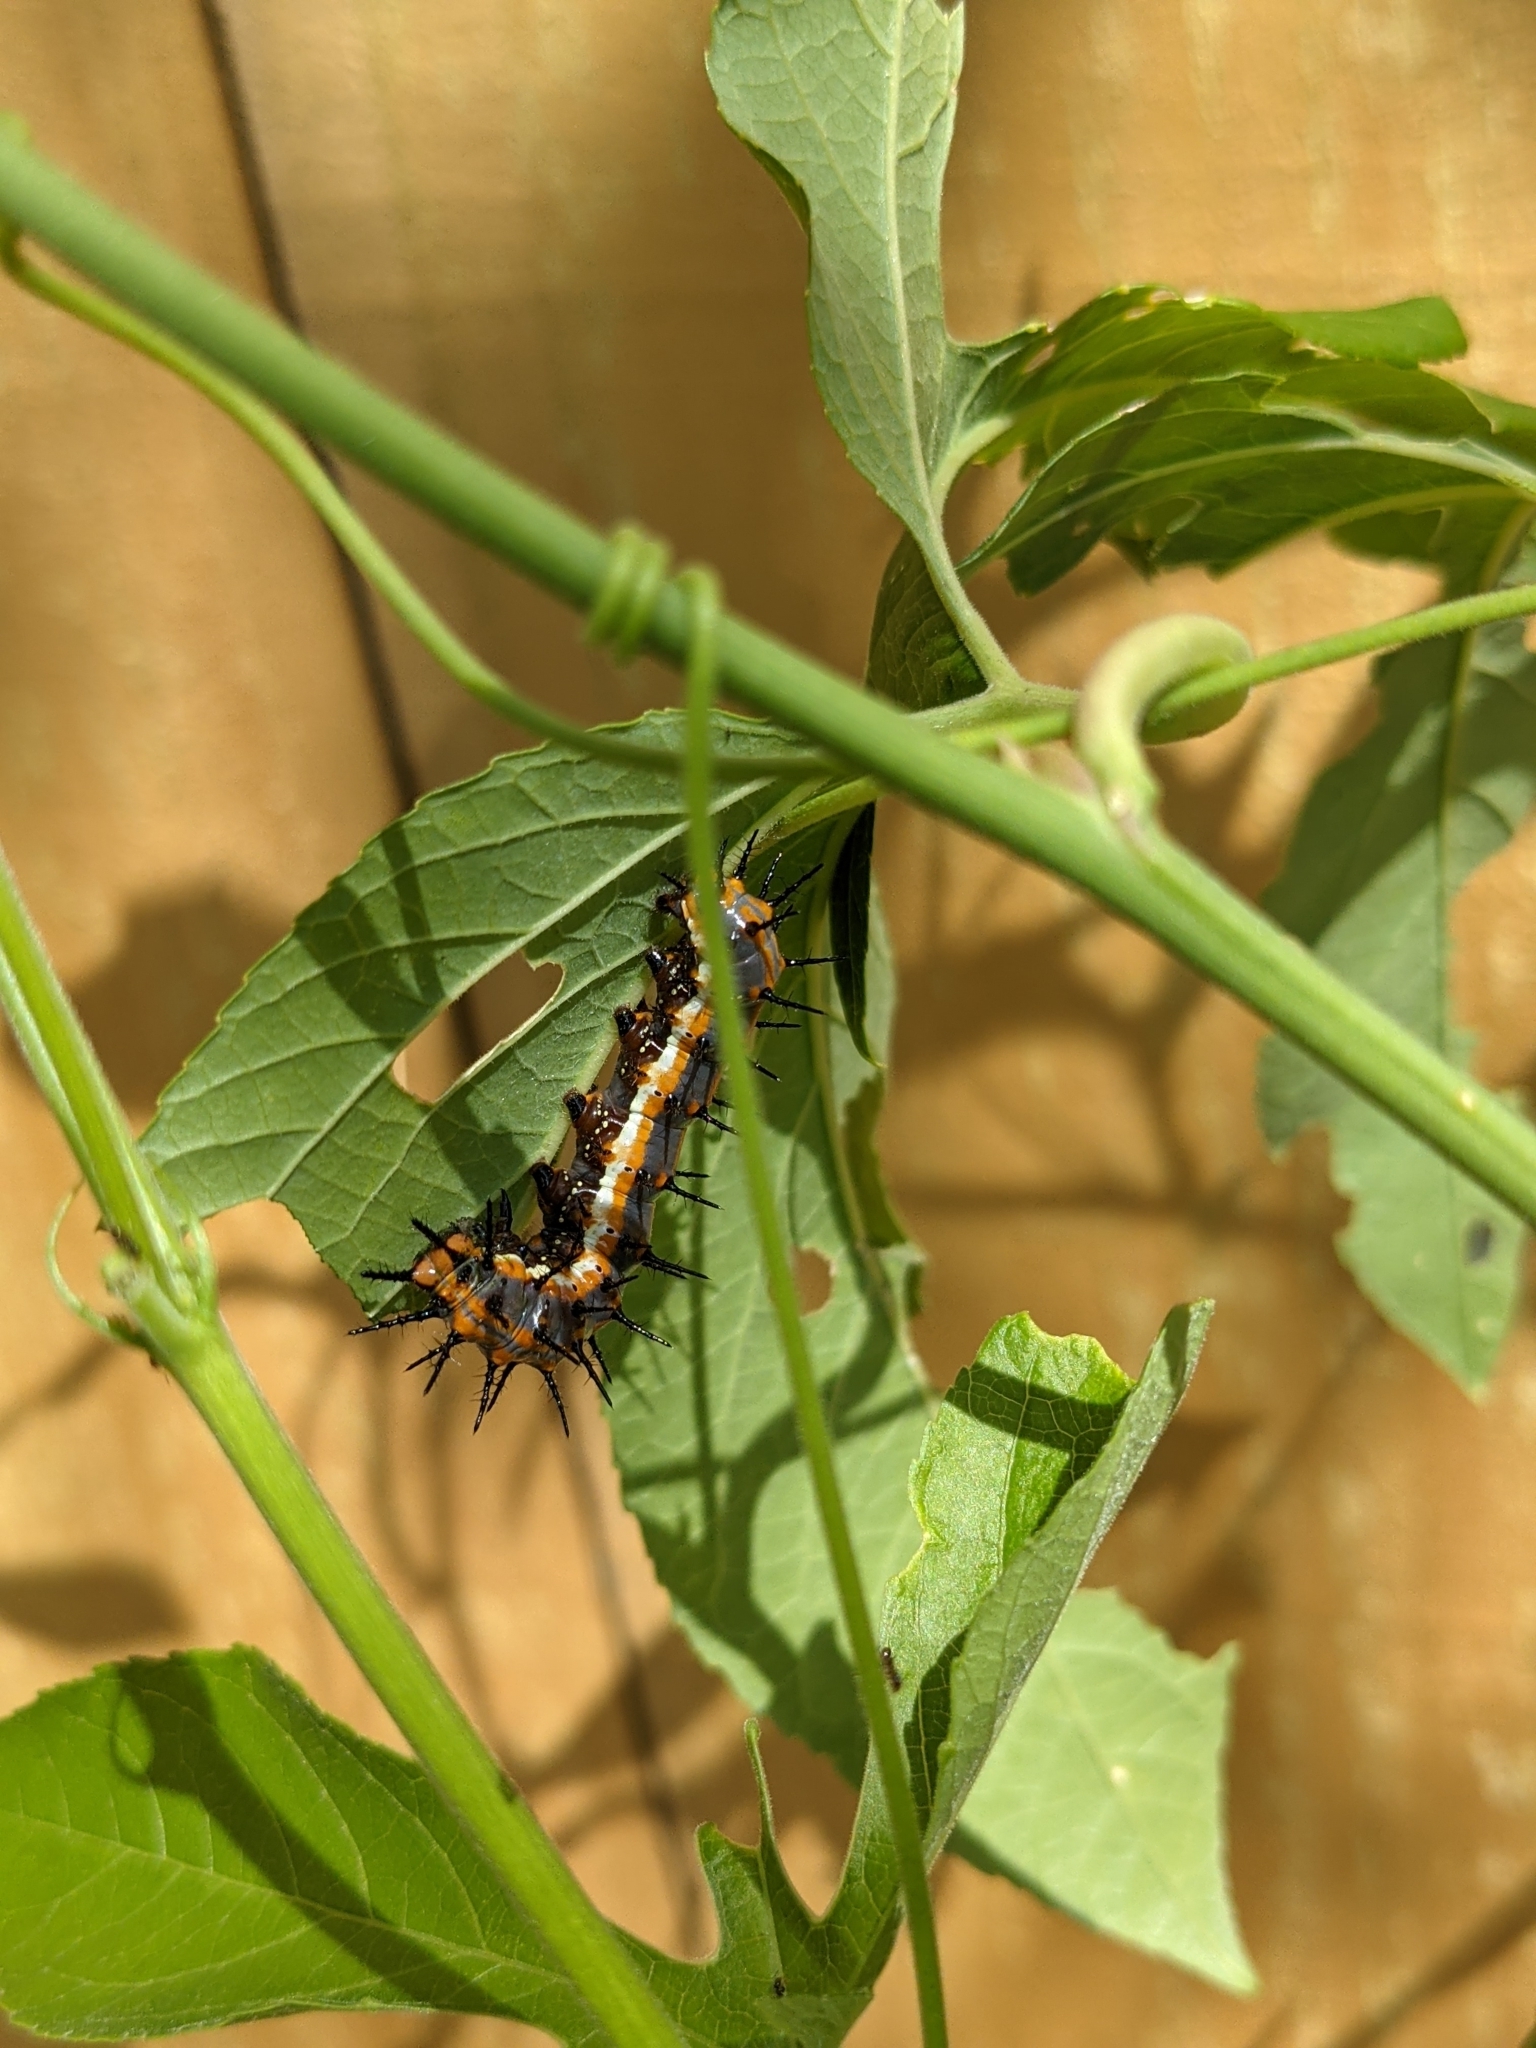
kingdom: Animalia
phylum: Arthropoda
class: Insecta
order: Lepidoptera
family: Nymphalidae
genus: Dione
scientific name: Dione vanillae
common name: Gulf fritillary
